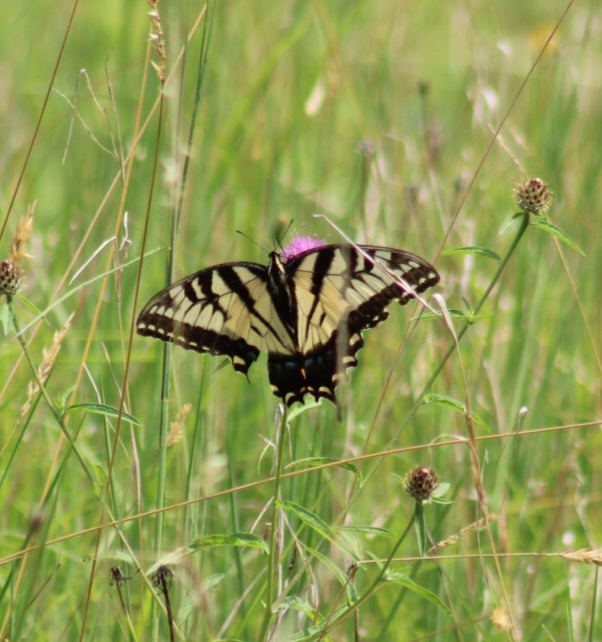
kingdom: Animalia
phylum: Arthropoda
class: Insecta
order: Lepidoptera
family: Papilionidae
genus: Papilio
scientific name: Papilio glaucus
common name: Tiger swallowtail
